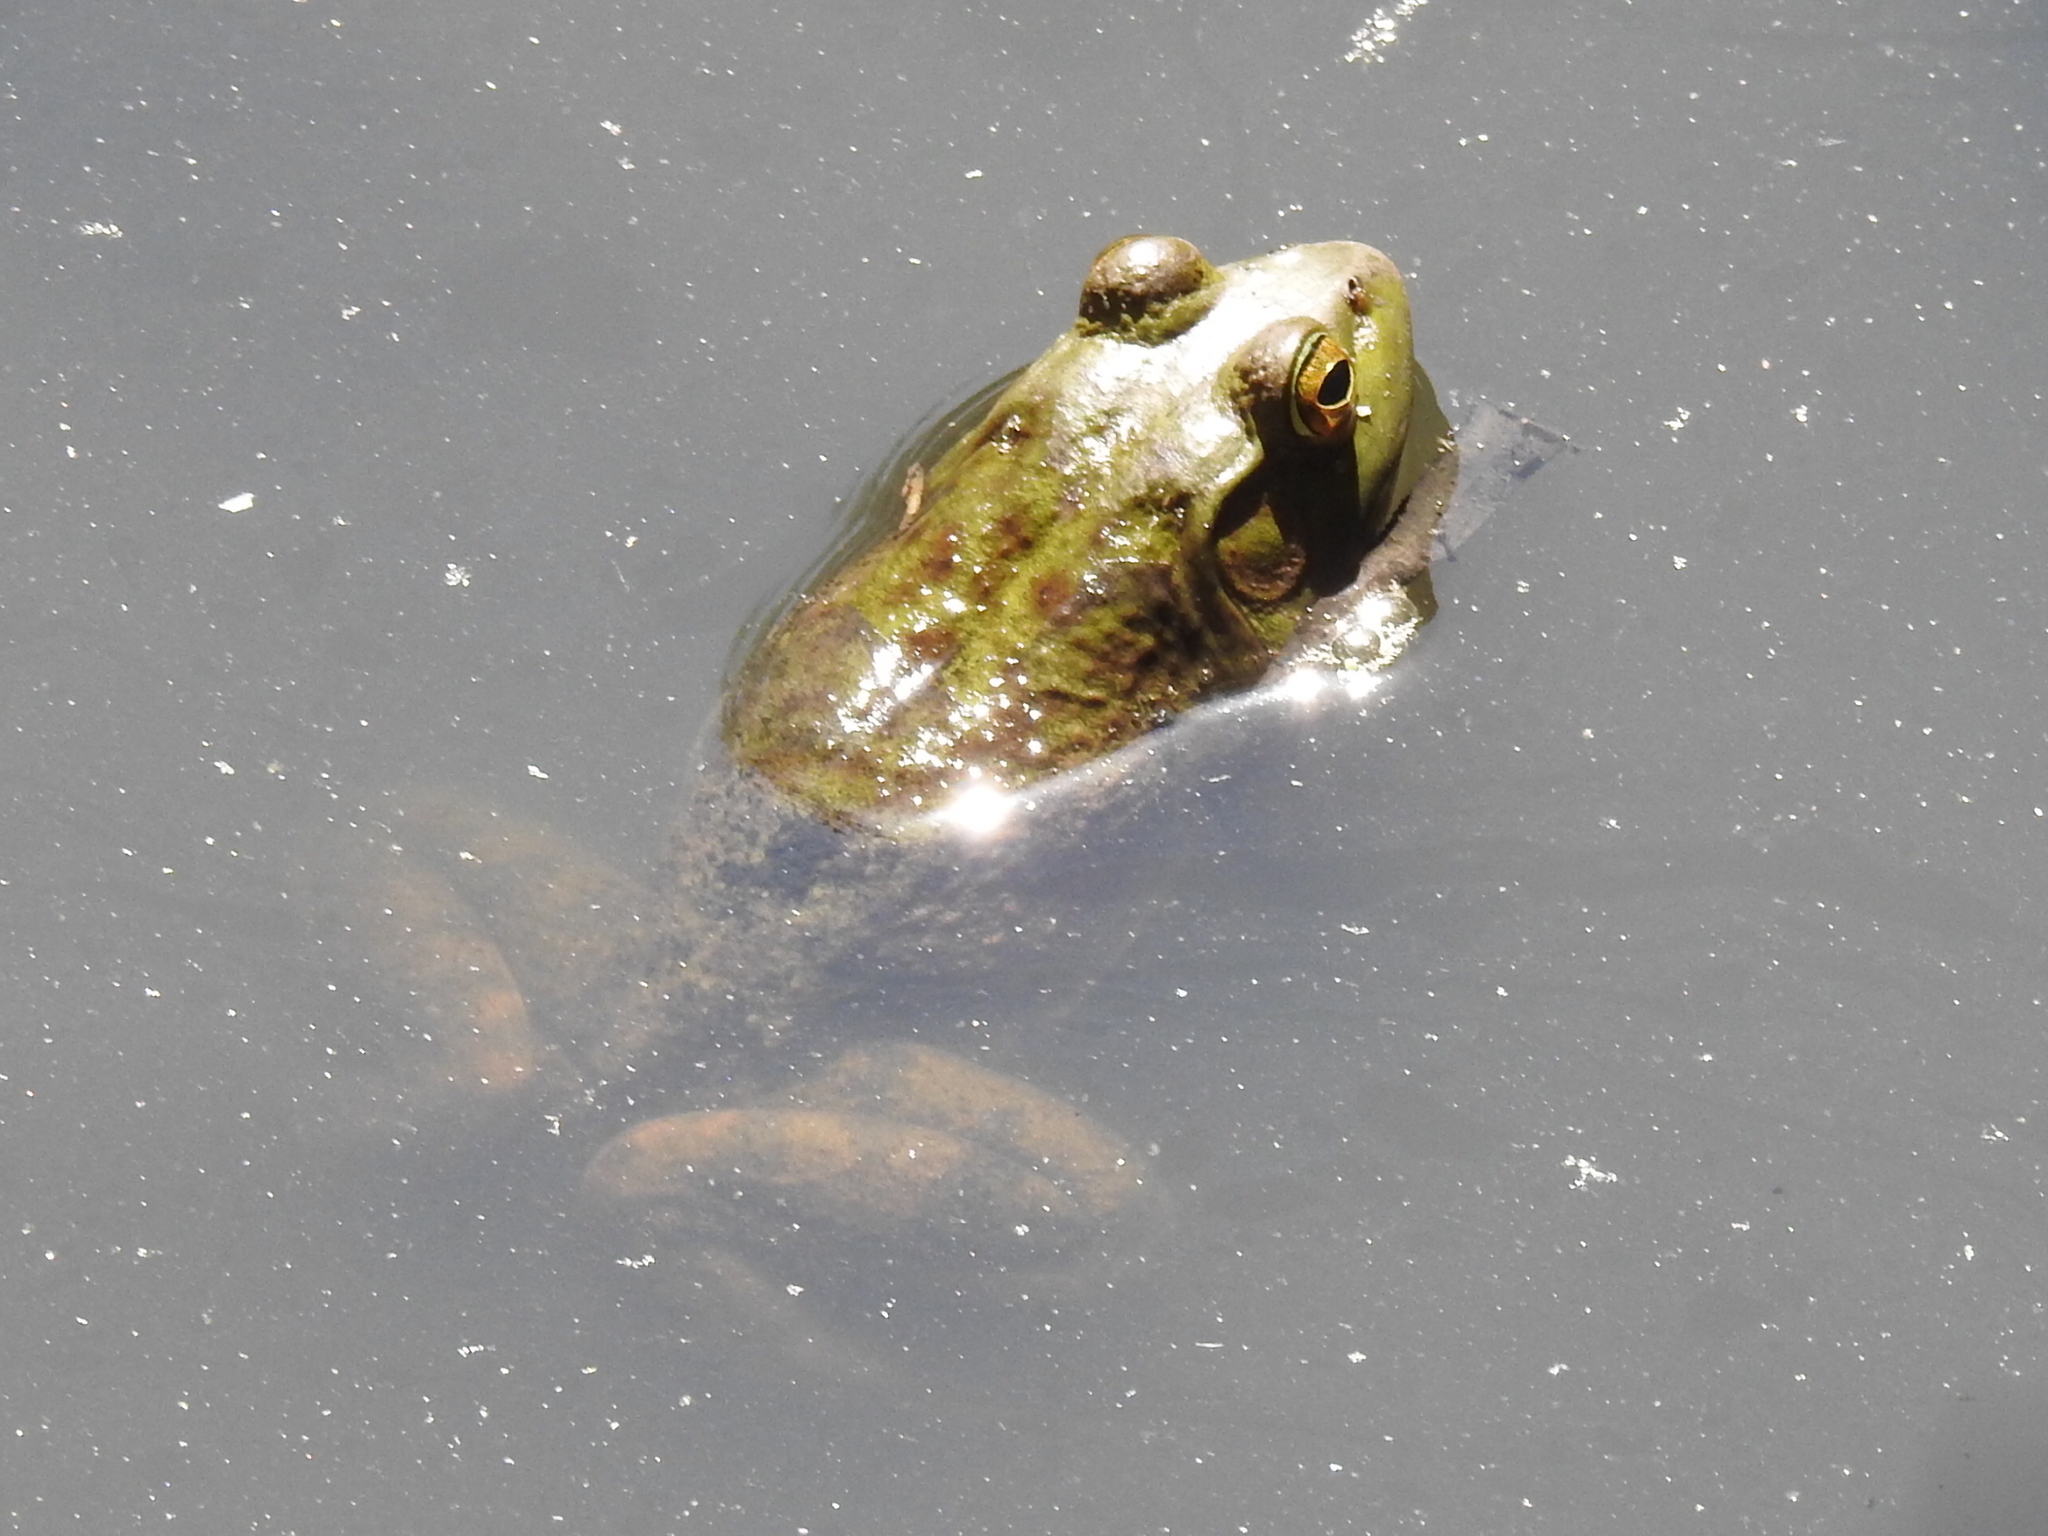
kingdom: Animalia
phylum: Chordata
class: Amphibia
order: Anura
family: Ranidae
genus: Lithobates
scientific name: Lithobates catesbeianus
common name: American bullfrog
